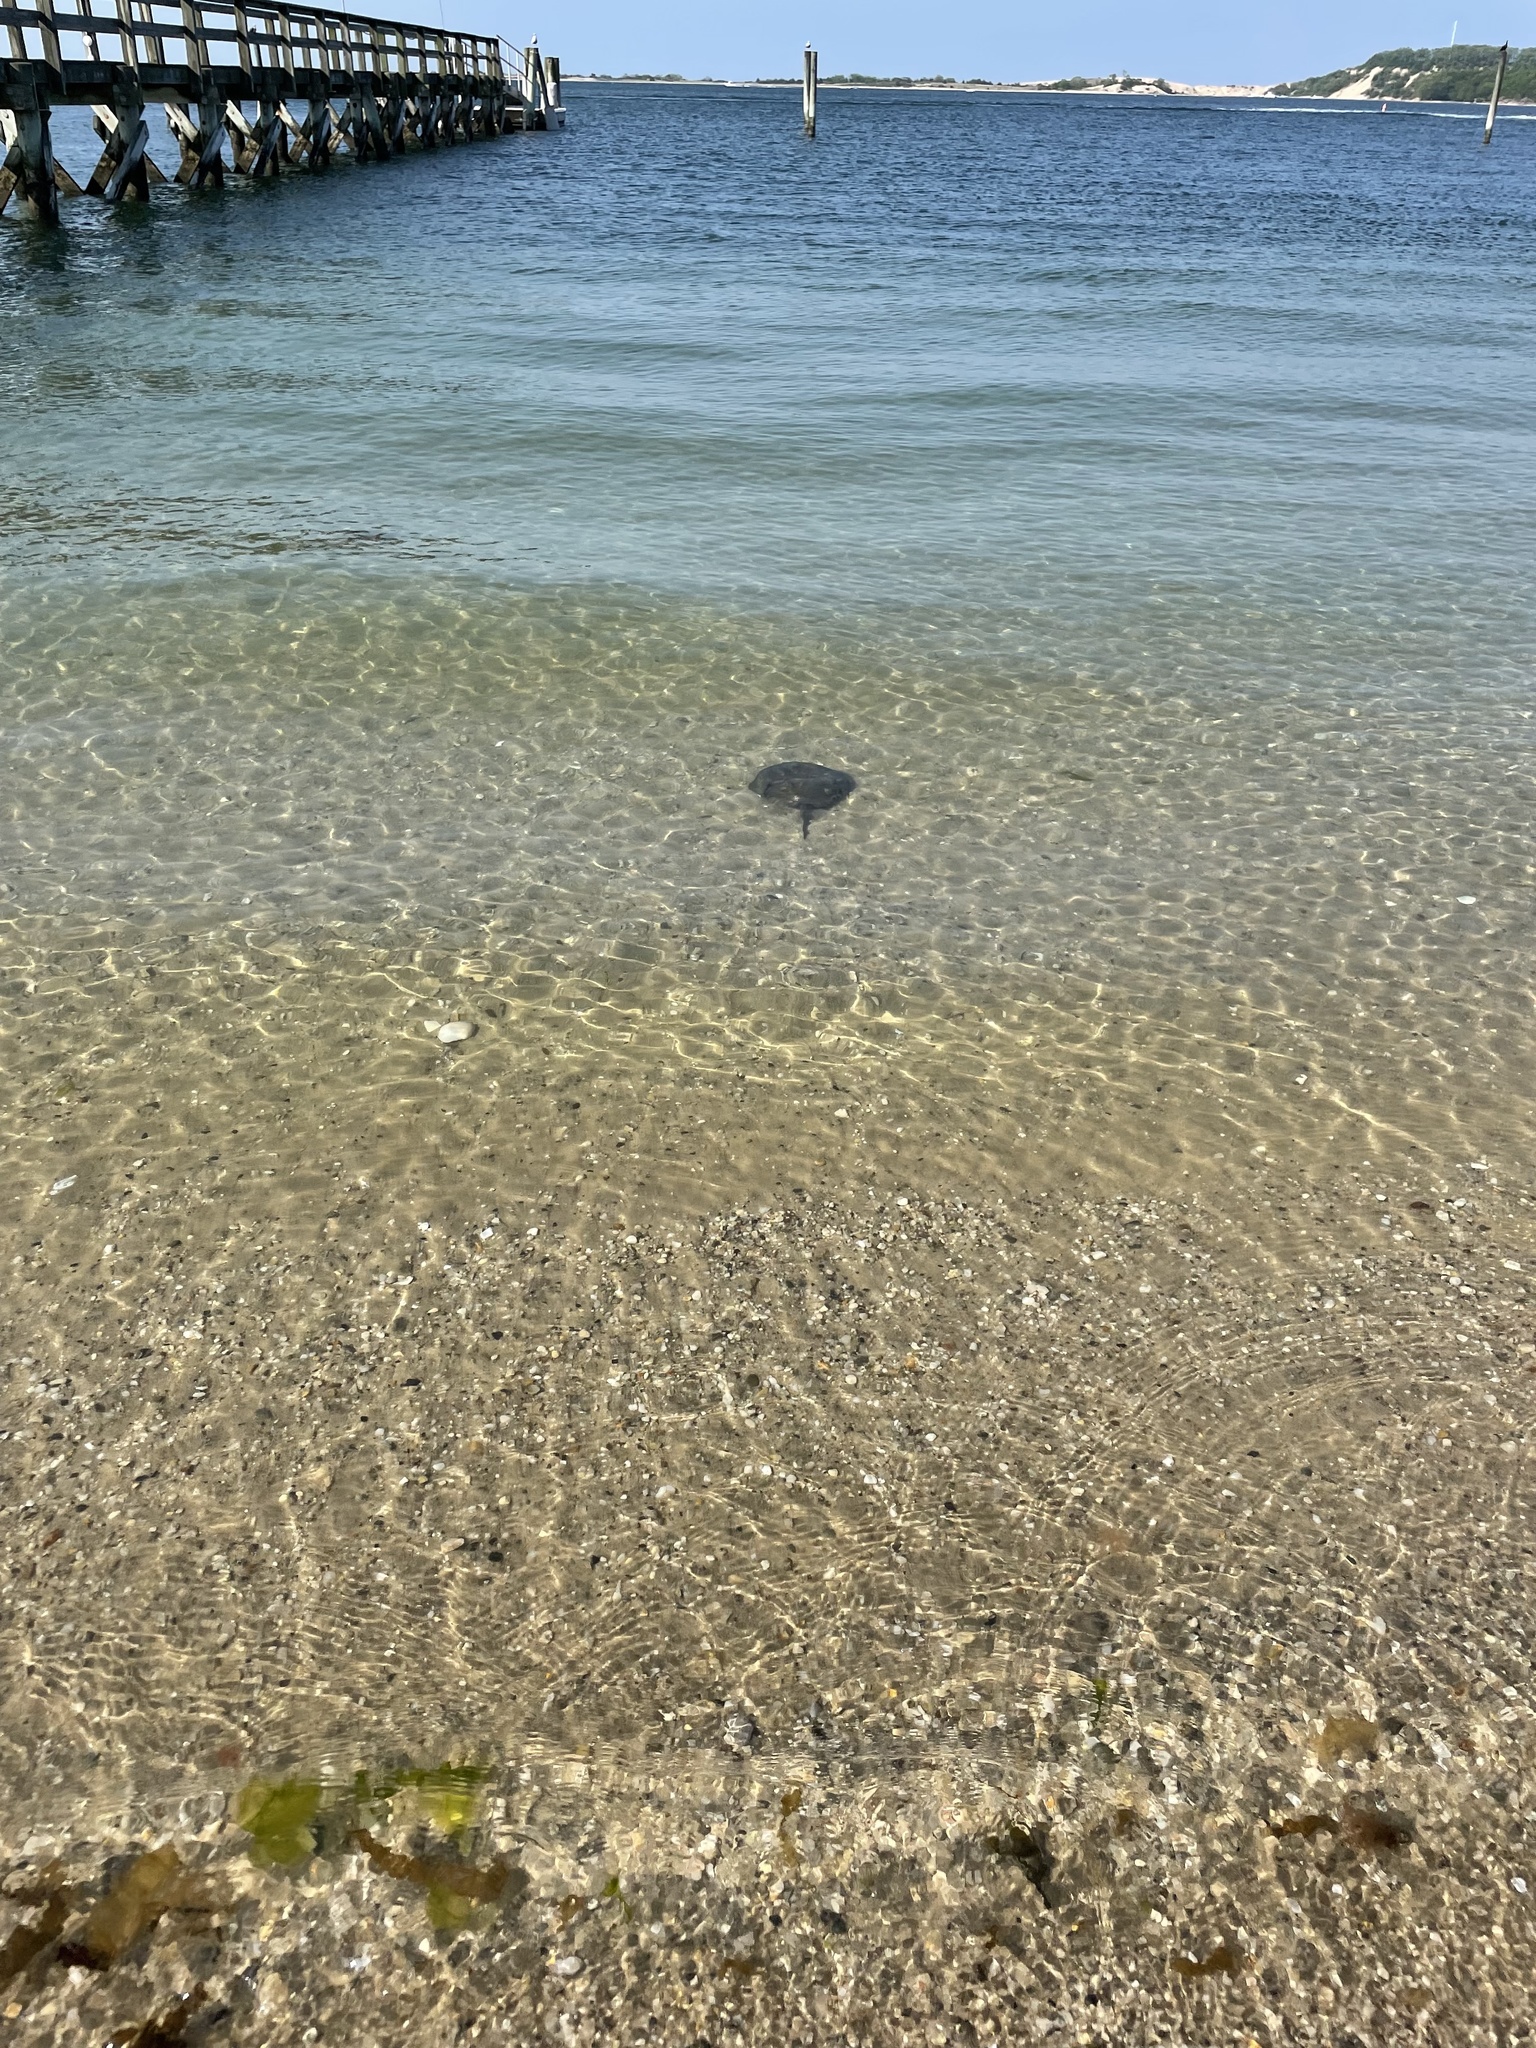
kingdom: Animalia
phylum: Arthropoda
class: Merostomata
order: Xiphosurida
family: Limulidae
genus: Limulus
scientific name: Limulus polyphemus
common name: Horseshoe crab
